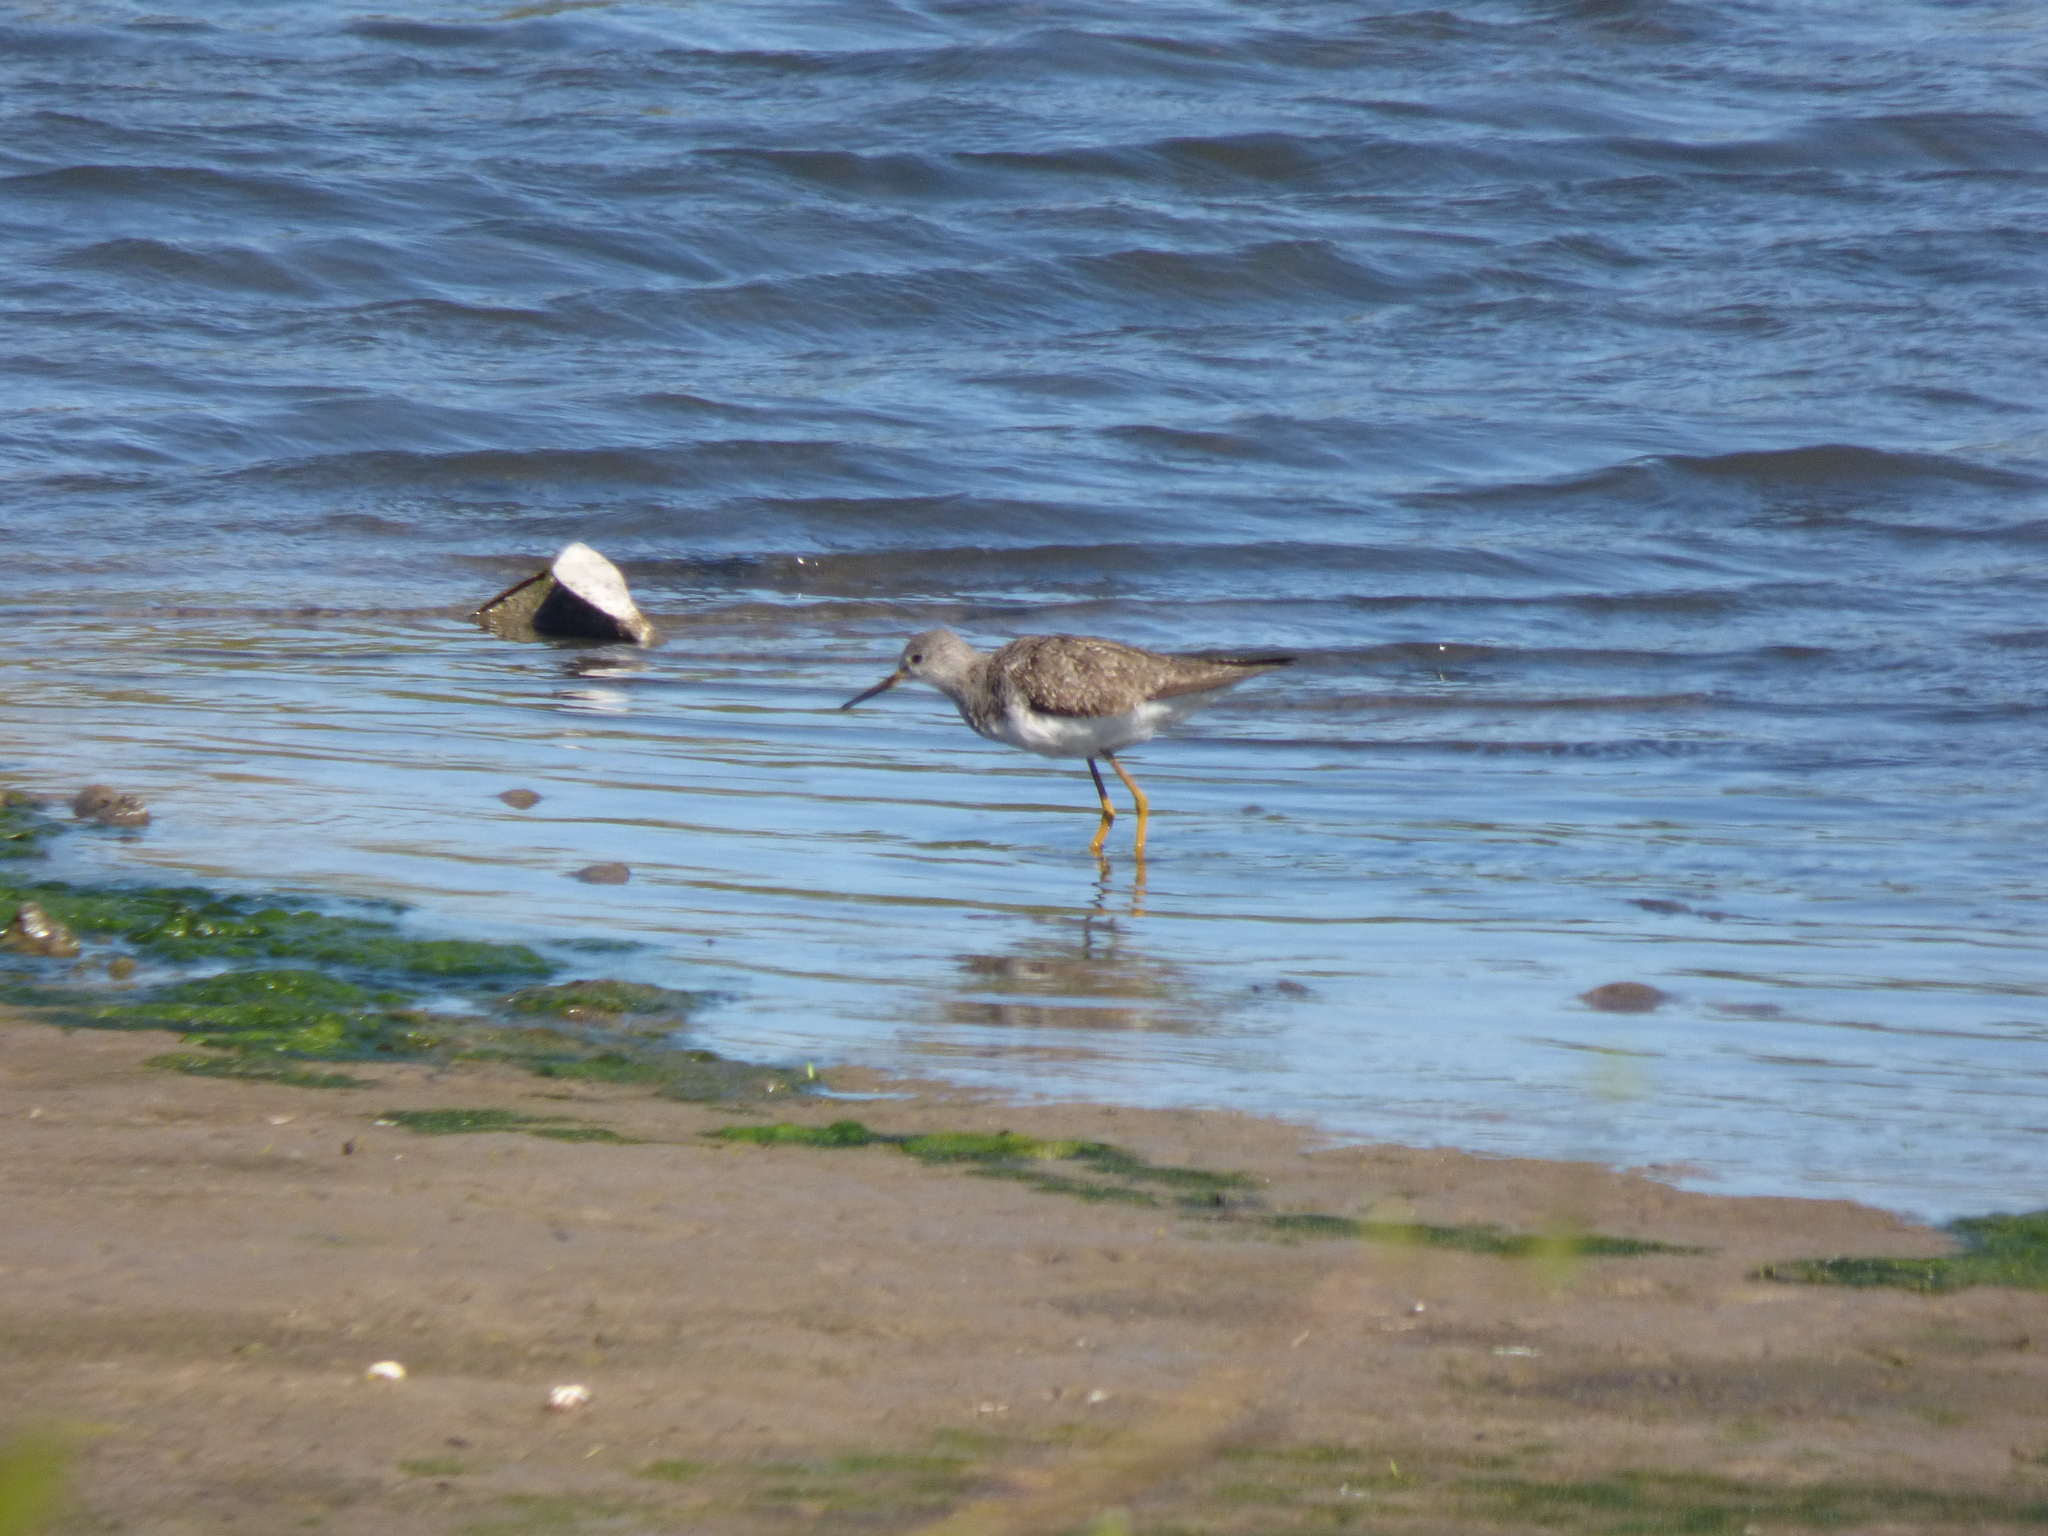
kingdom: Animalia
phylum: Chordata
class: Aves
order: Charadriiformes
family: Scolopacidae
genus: Tringa
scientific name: Tringa flavipes
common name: Lesser yellowlegs
